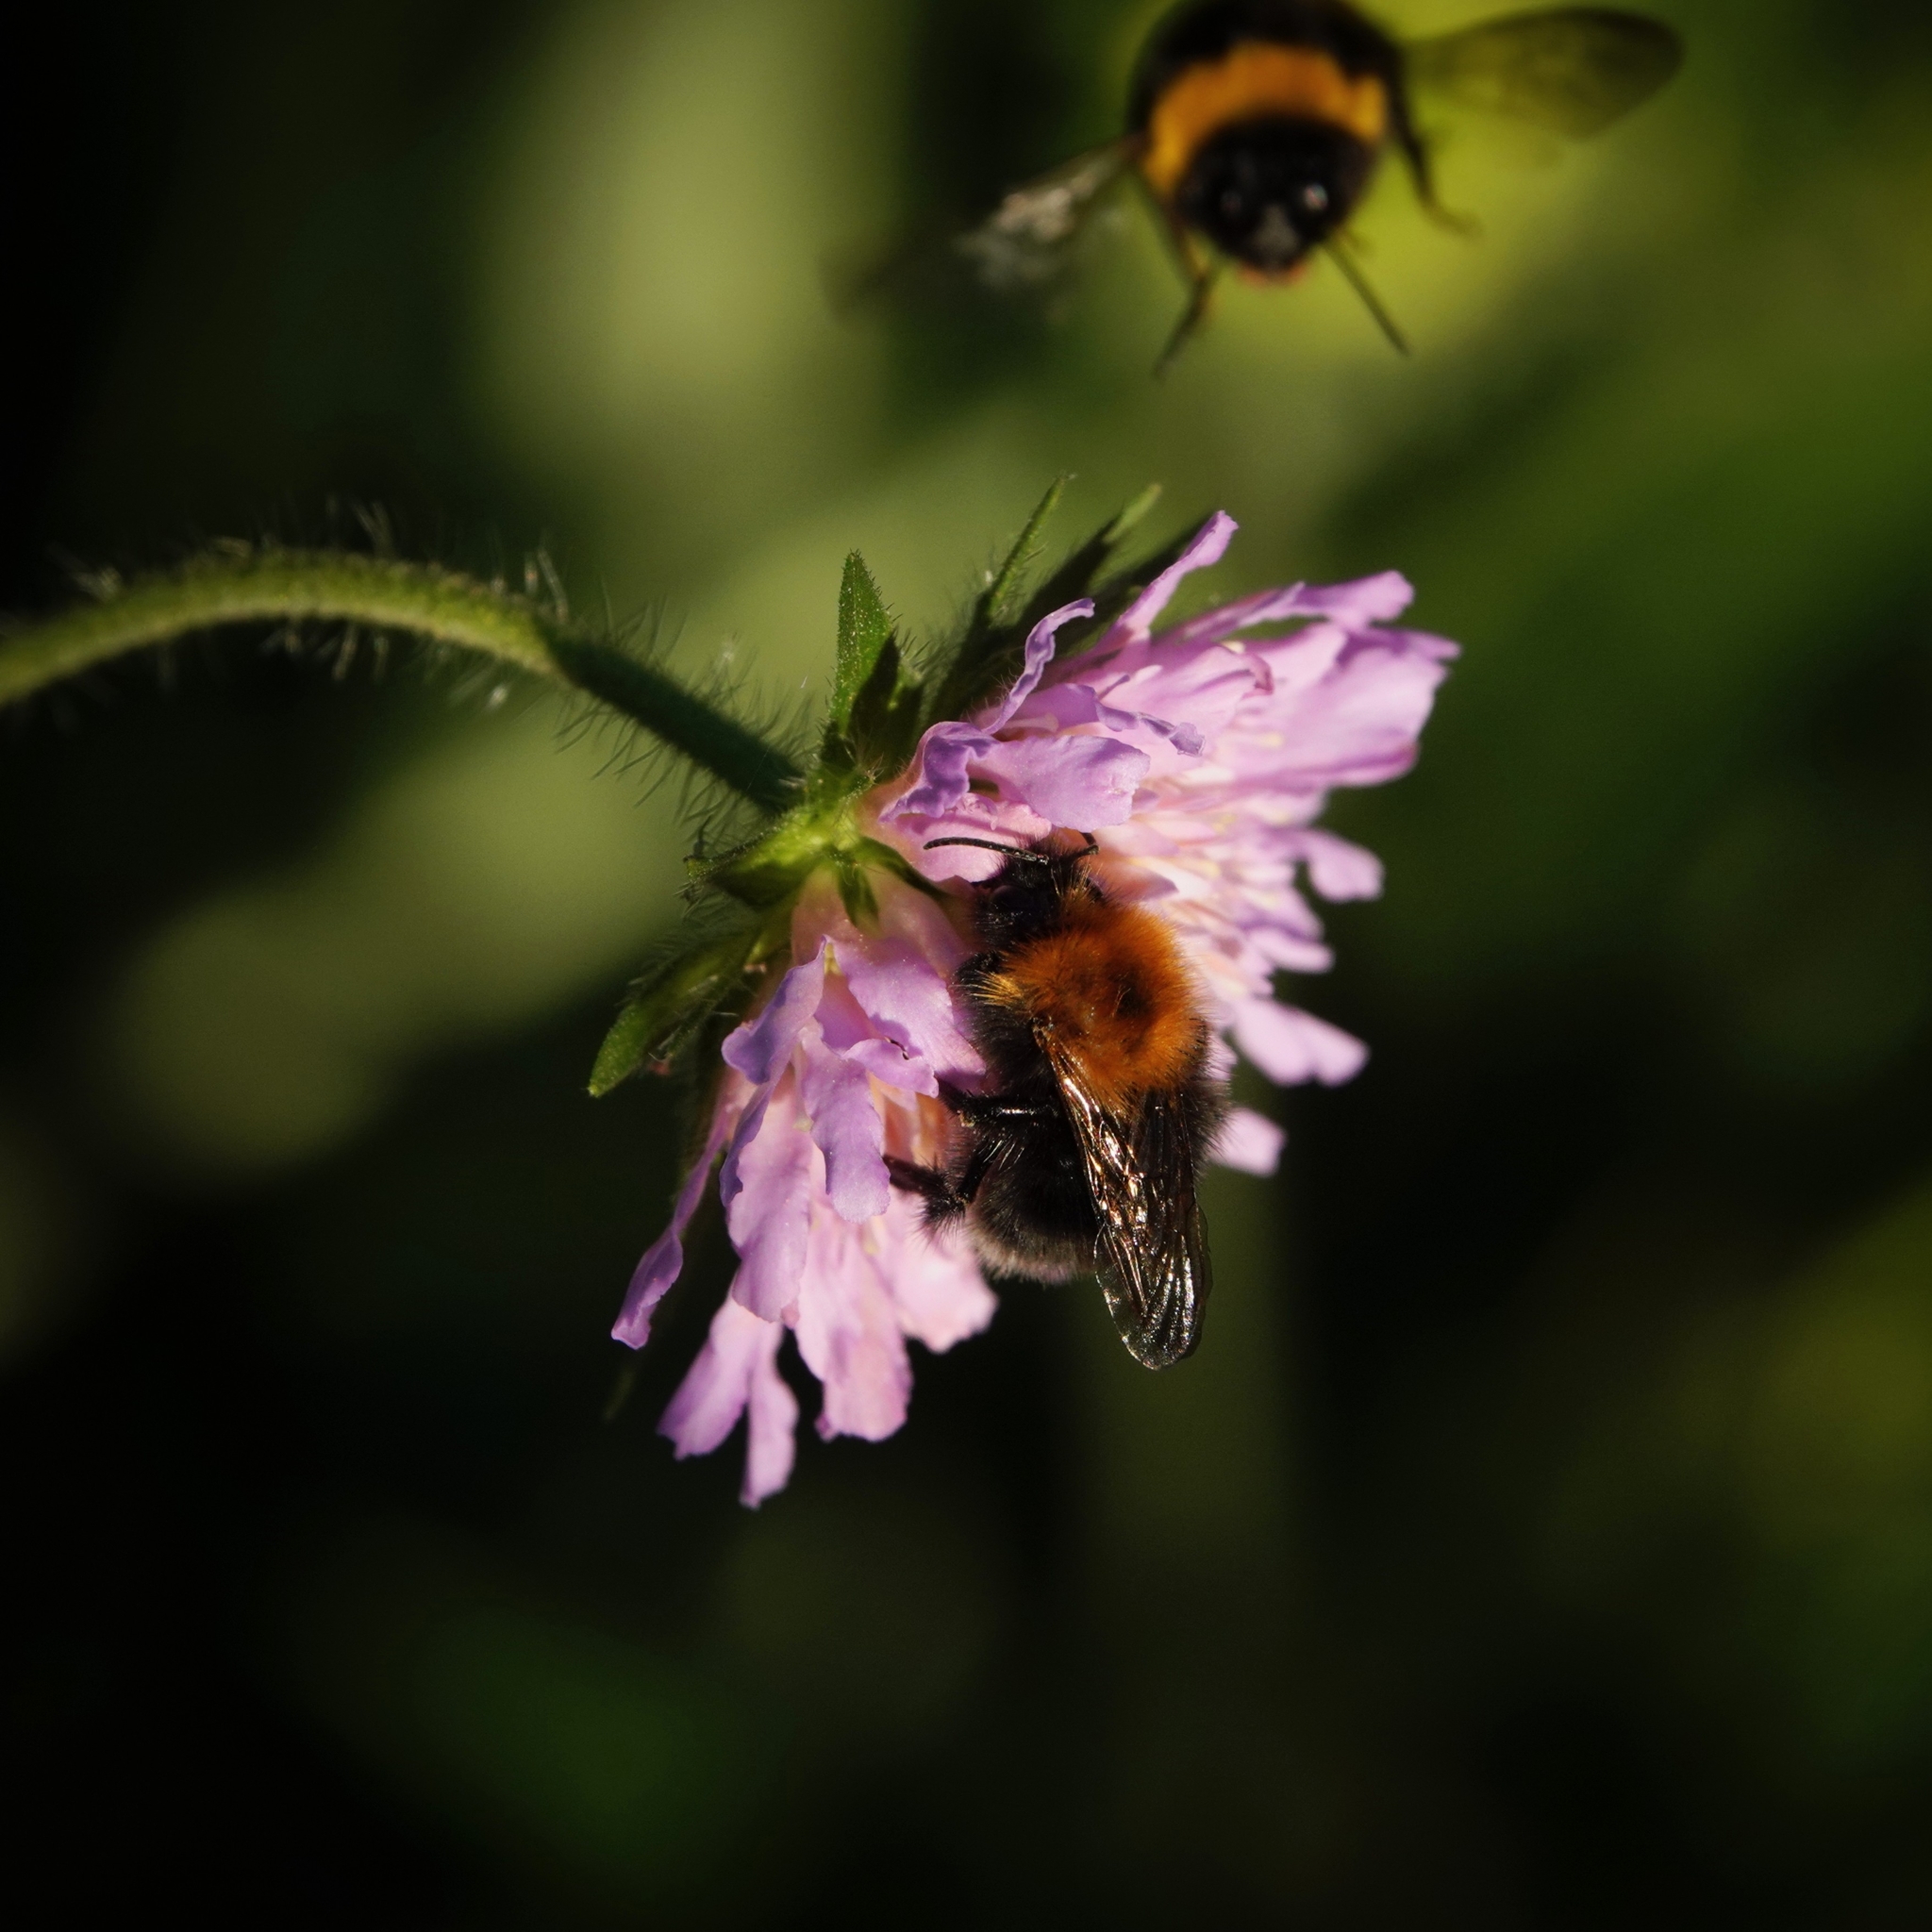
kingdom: Animalia
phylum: Arthropoda
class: Insecta
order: Hymenoptera
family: Apidae
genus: Bombus
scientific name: Bombus hypnorum
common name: New garden bumblebee
